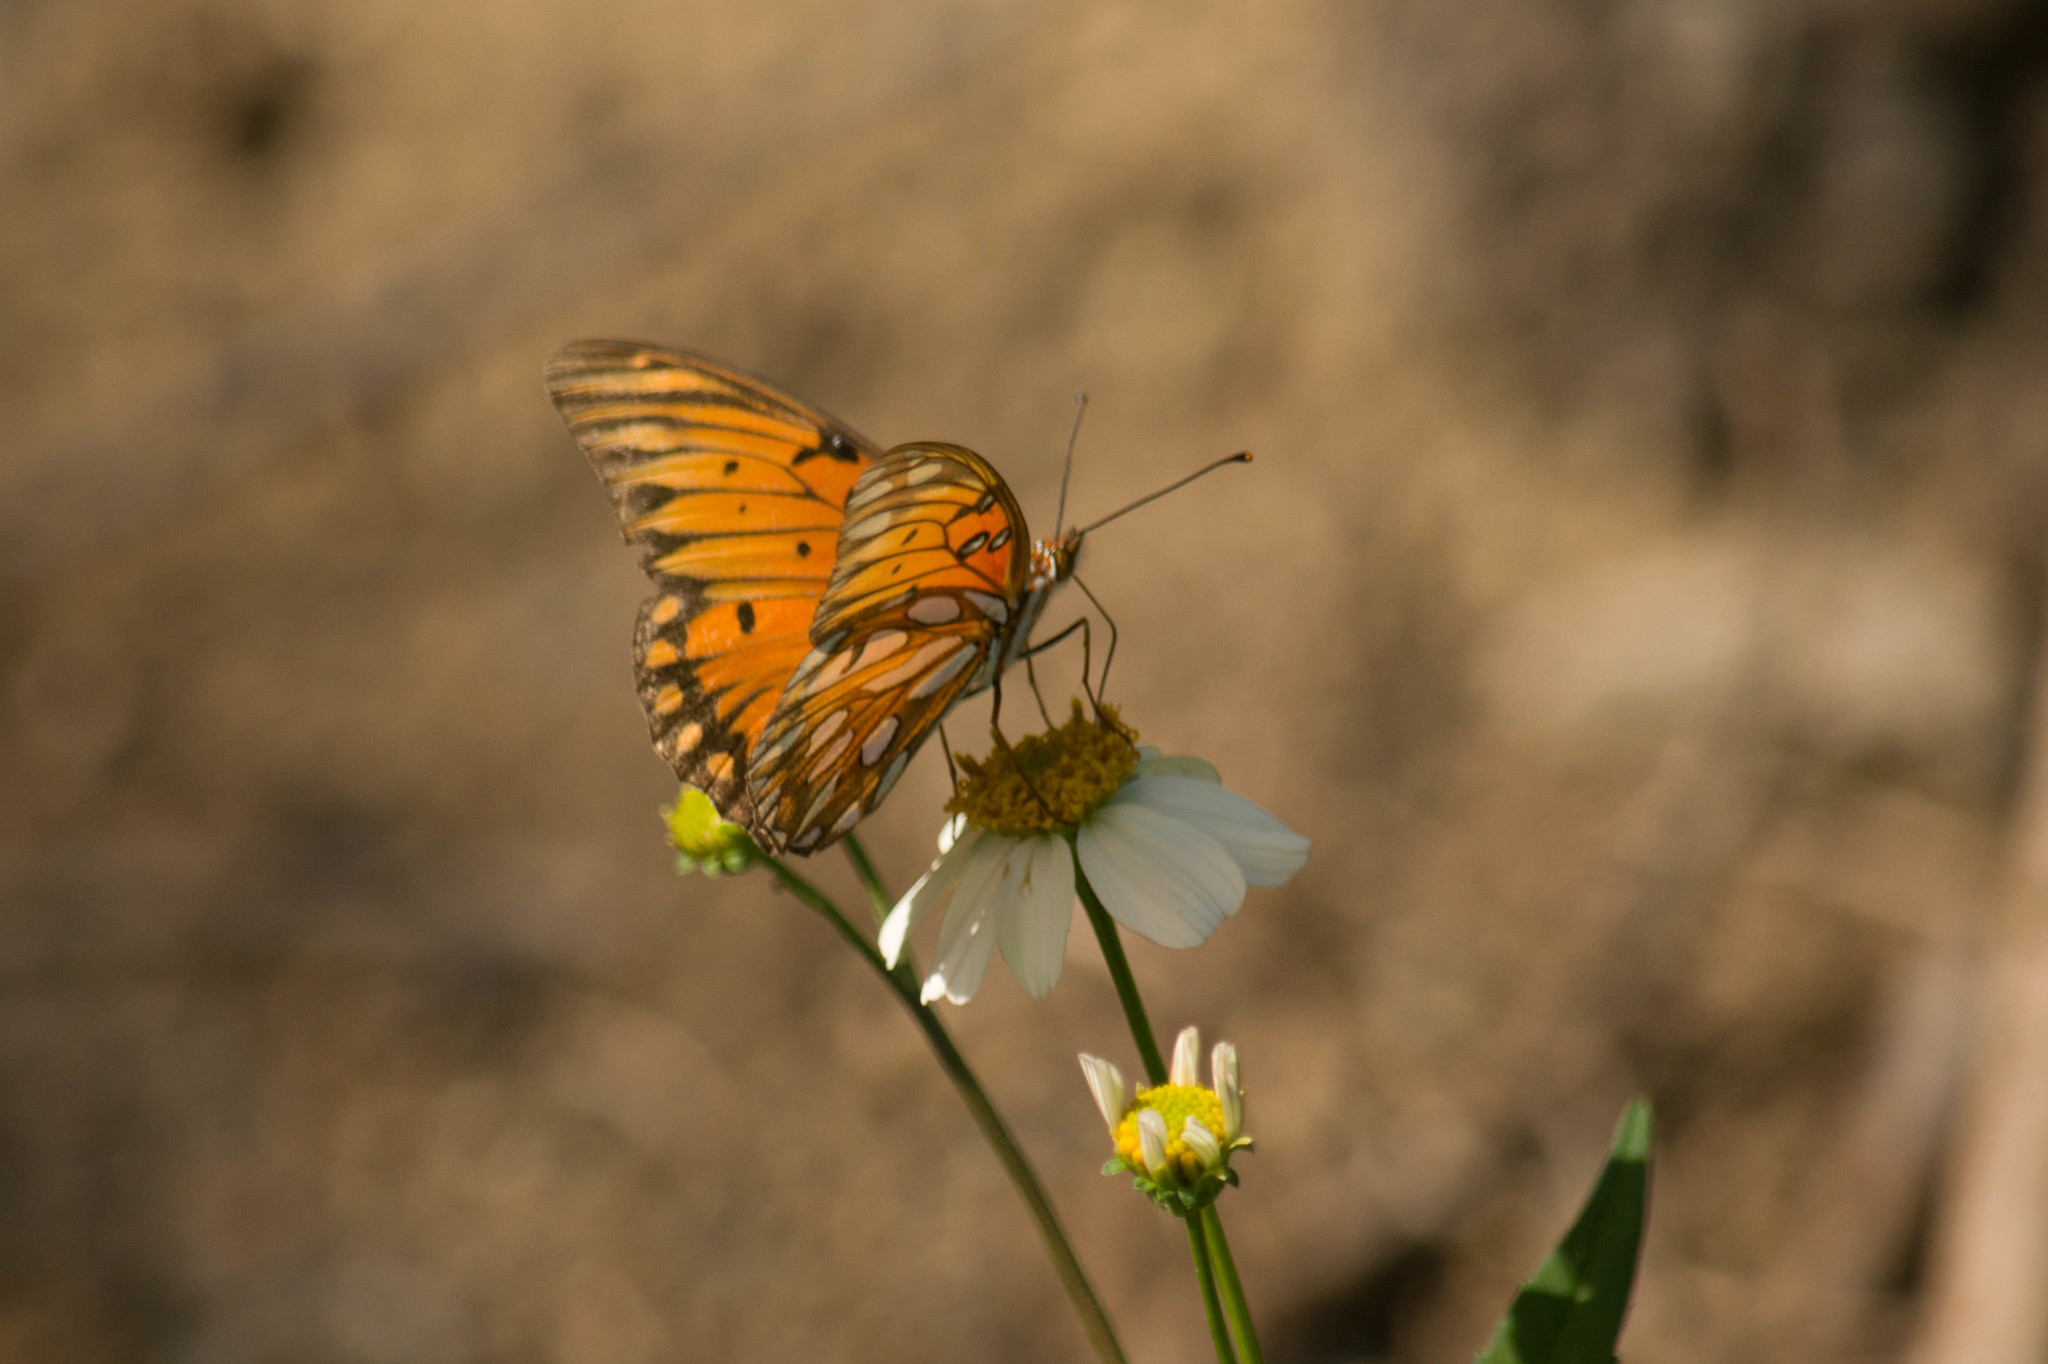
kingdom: Animalia
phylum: Arthropoda
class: Insecta
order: Lepidoptera
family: Nymphalidae
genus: Dione
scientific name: Dione vanillae
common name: Gulf fritillary
